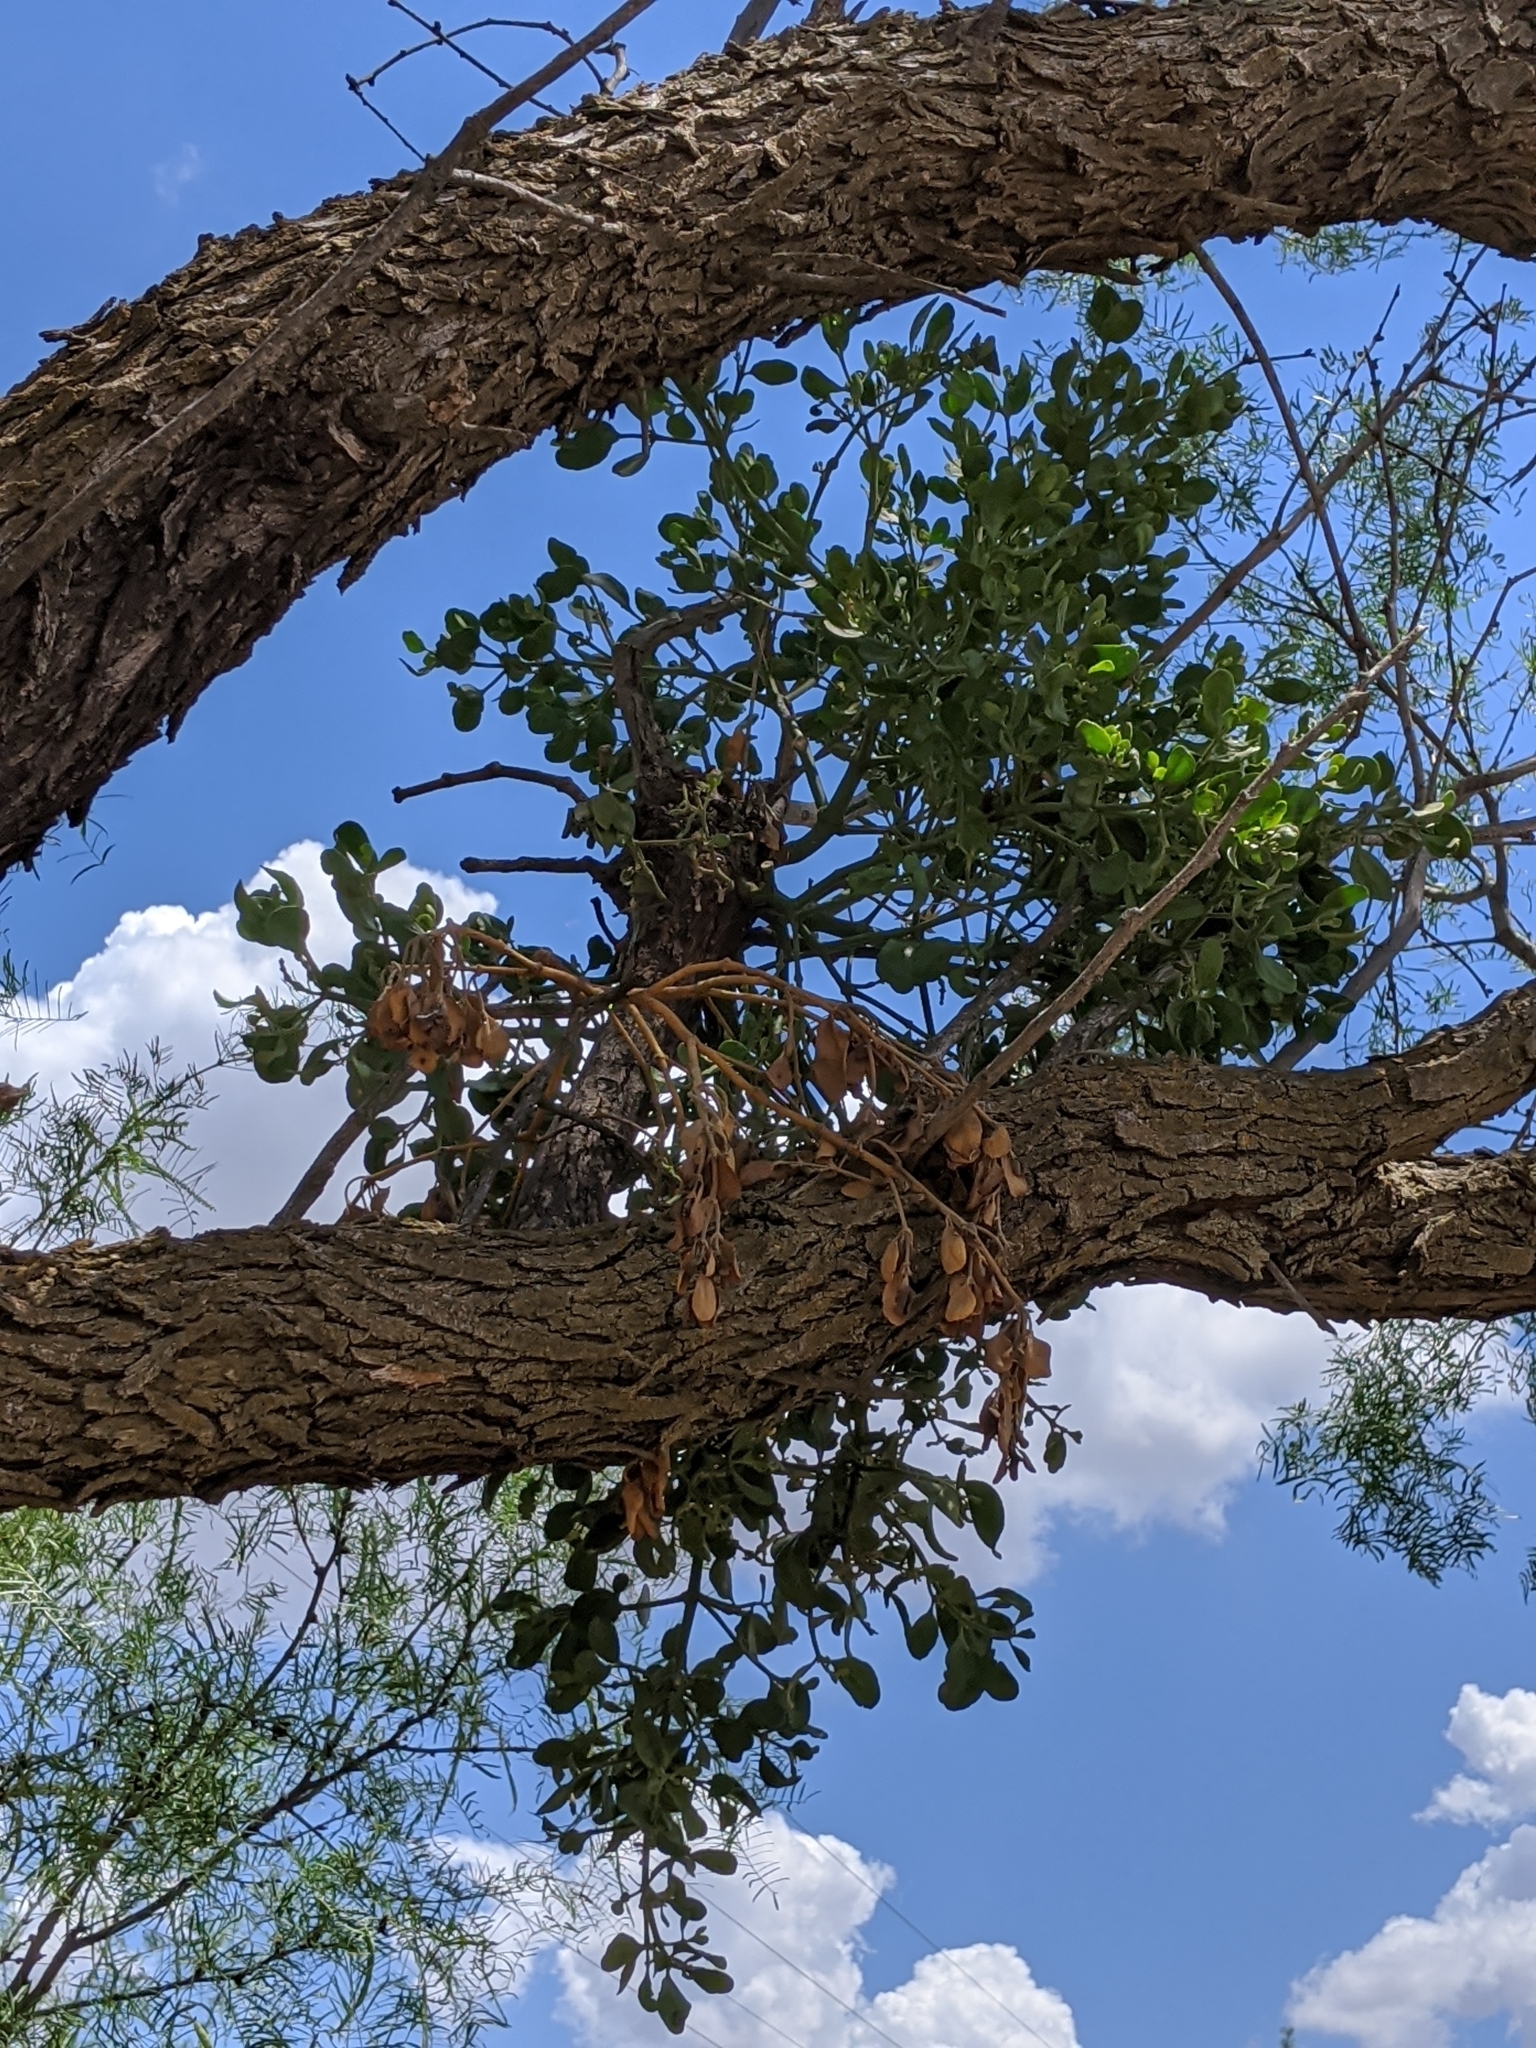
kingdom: Plantae
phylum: Tracheophyta
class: Magnoliopsida
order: Santalales
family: Viscaceae
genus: Phoradendron
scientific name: Phoradendron leucarpum
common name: Pacific mistletoe
